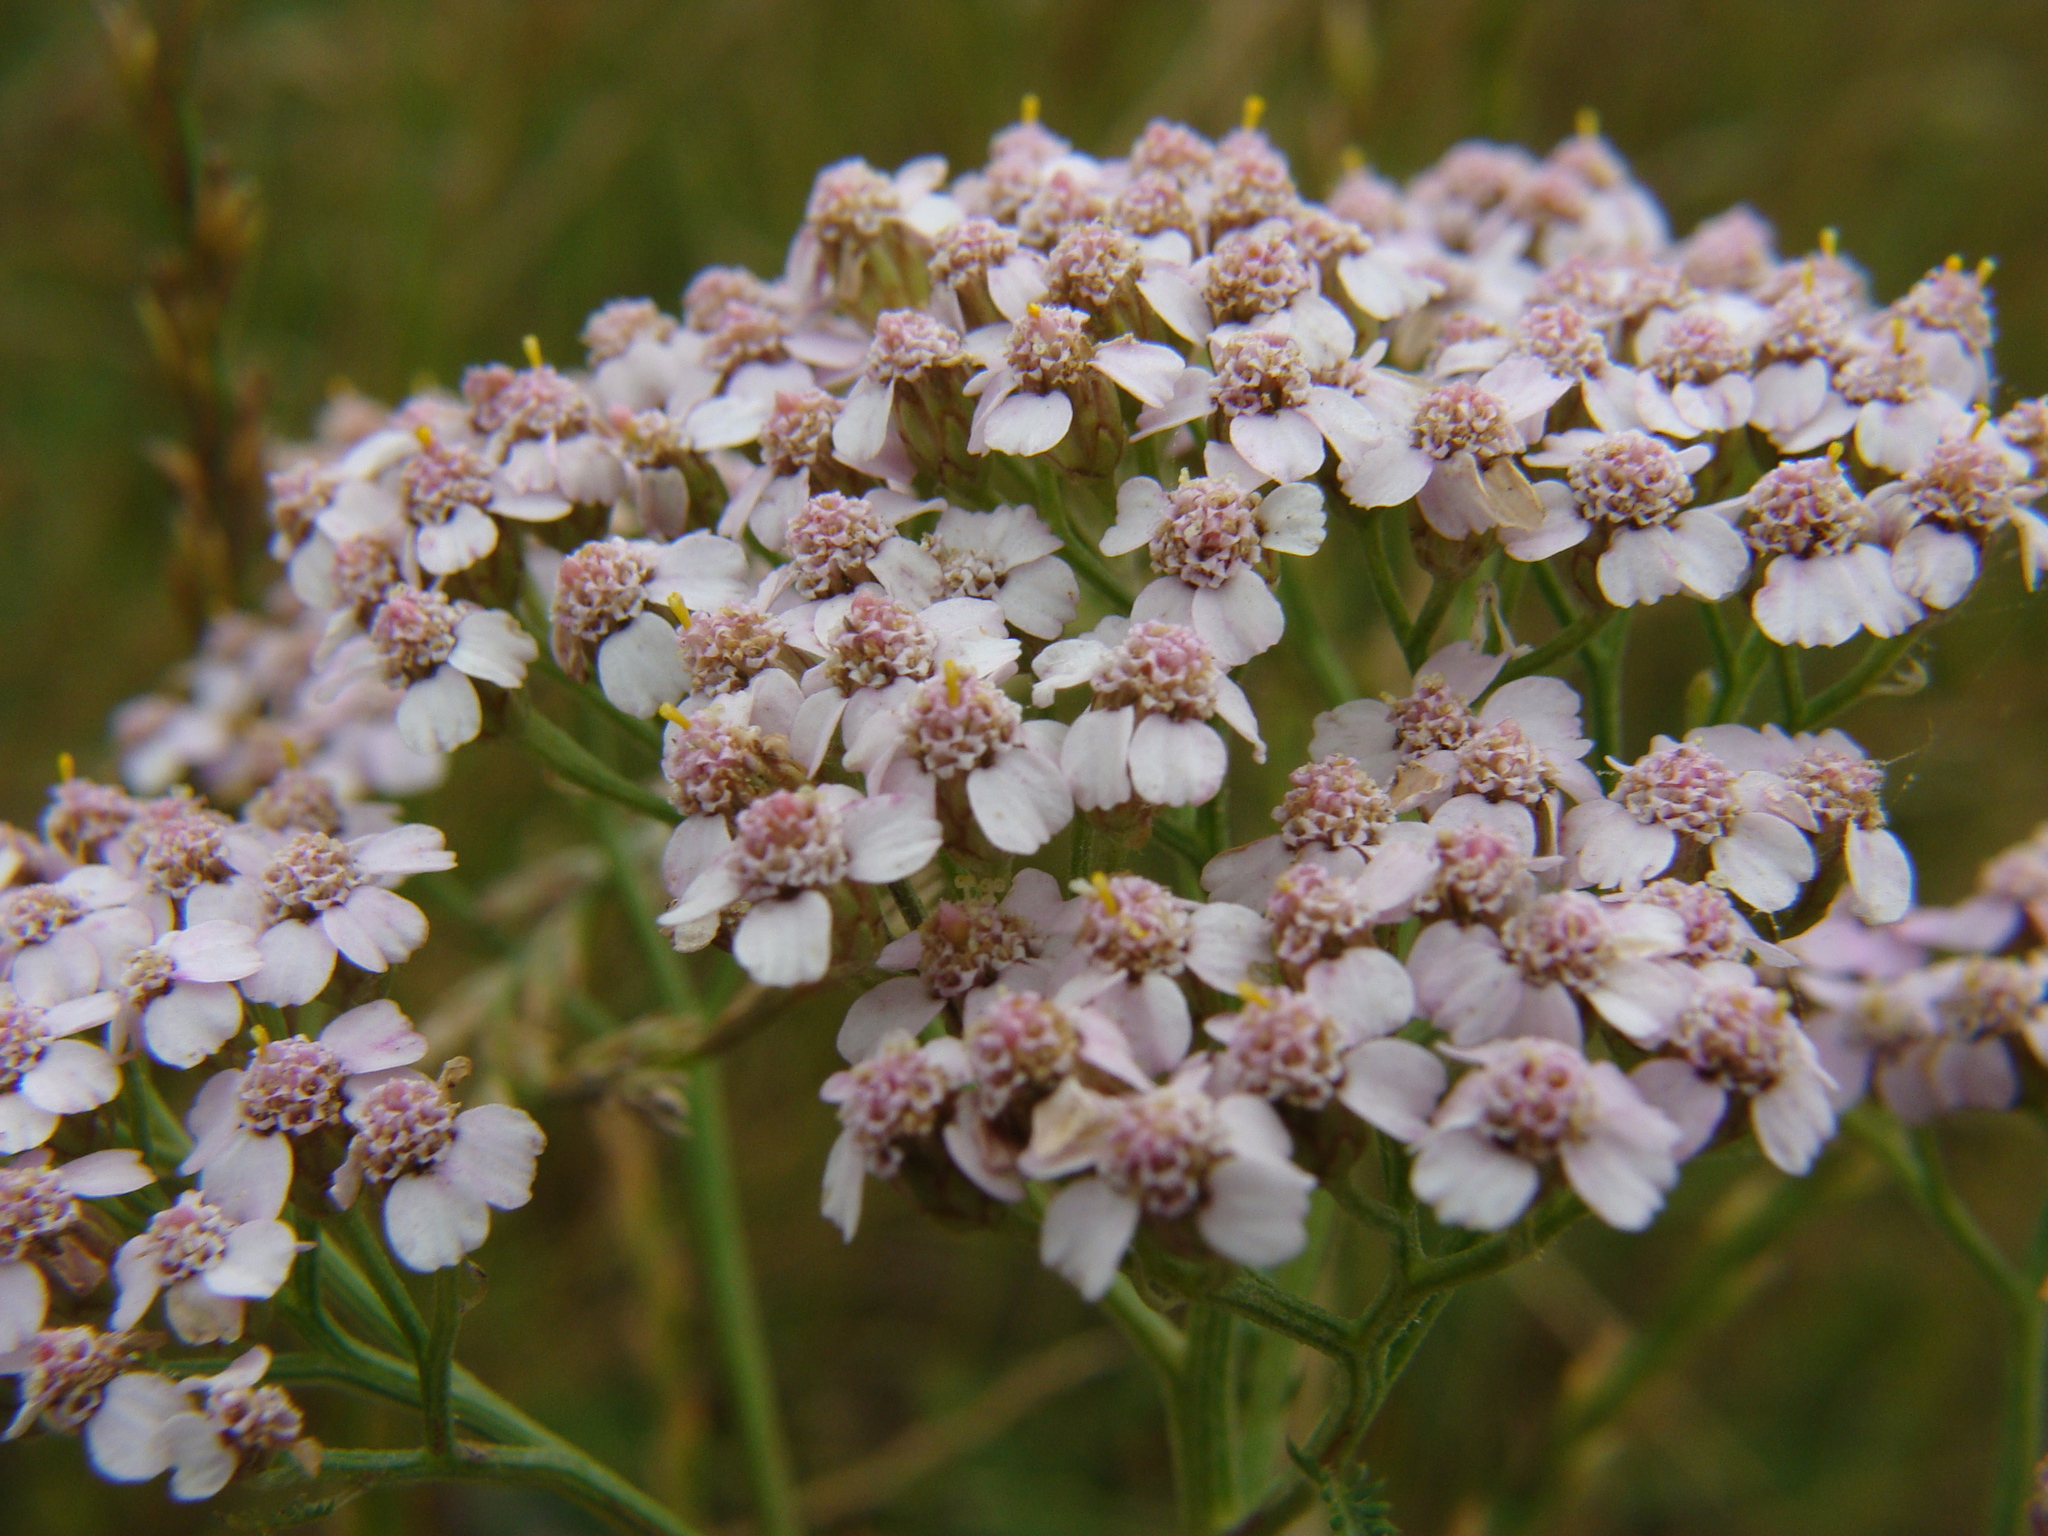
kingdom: Plantae
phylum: Tracheophyta
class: Magnoliopsida
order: Asterales
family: Asteraceae
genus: Achillea
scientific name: Achillea millefolium
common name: Yarrow
